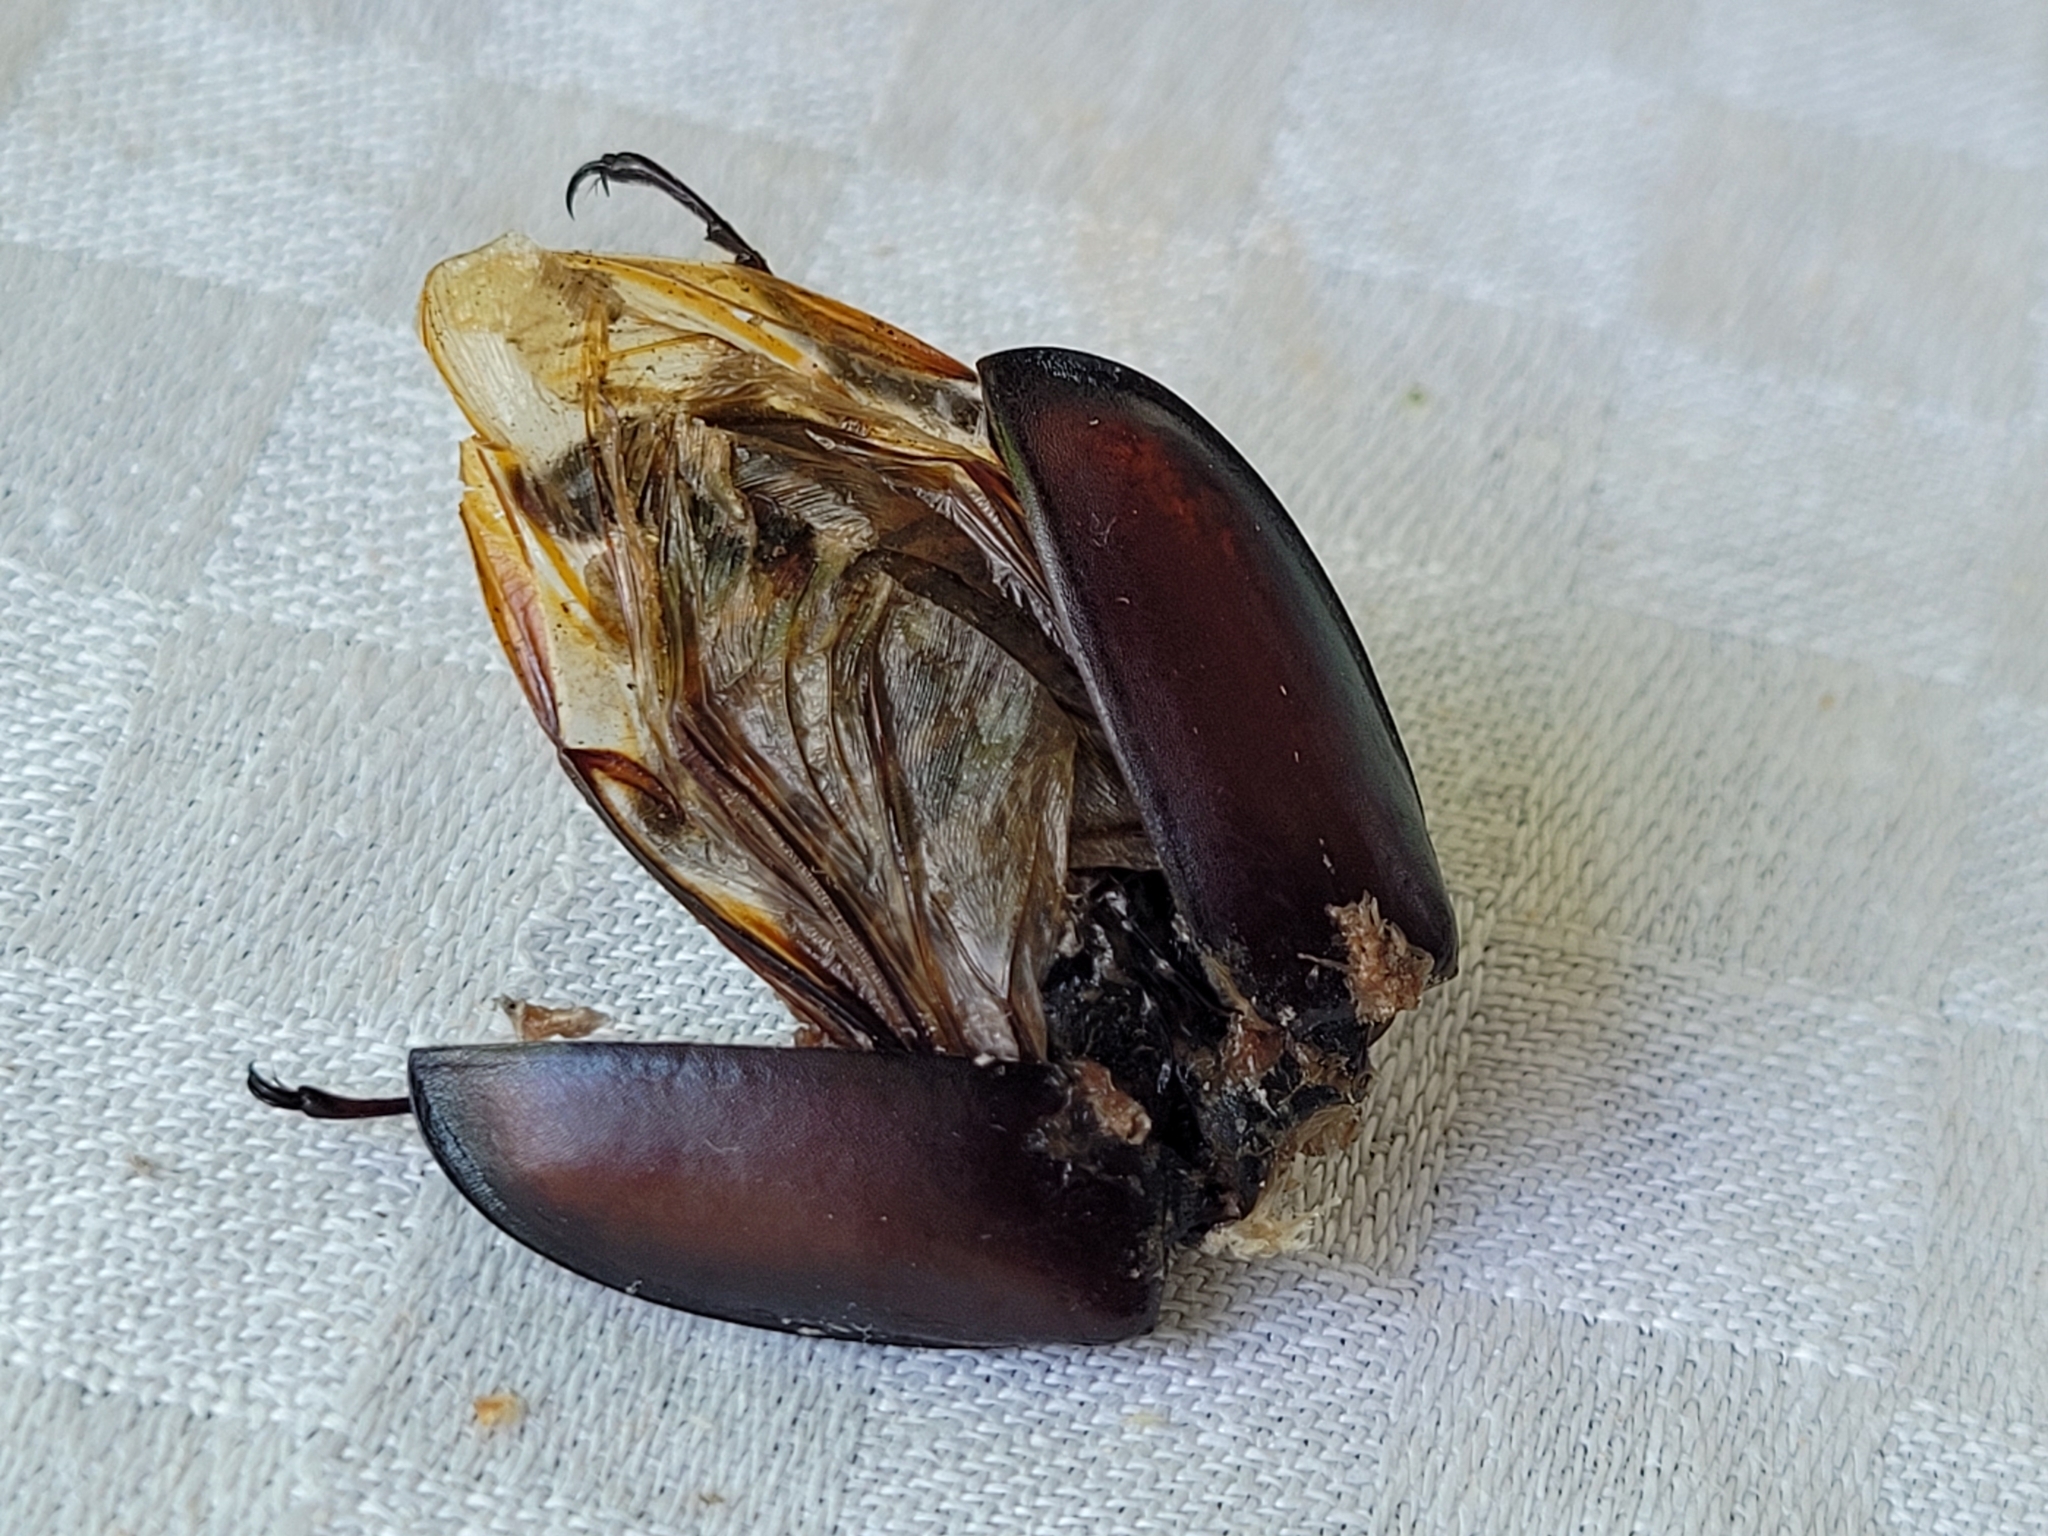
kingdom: Animalia
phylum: Arthropoda
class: Insecta
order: Coleoptera
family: Lucanidae
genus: Lucanus
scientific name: Lucanus cervus
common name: Stag beetle
